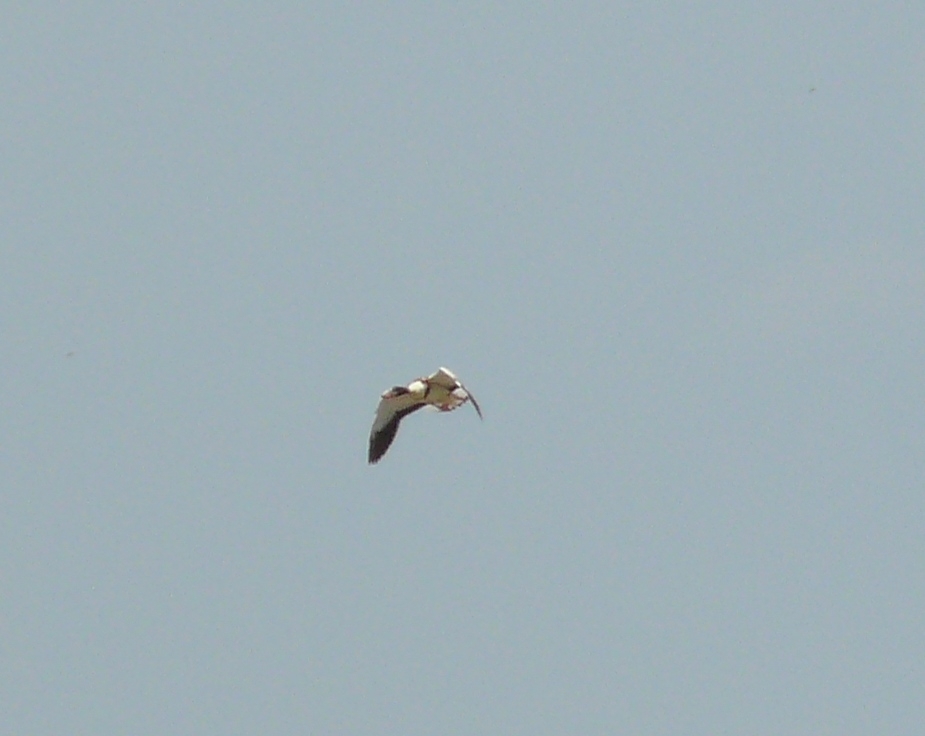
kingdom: Animalia
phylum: Chordata
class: Aves
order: Anseriformes
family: Anatidae
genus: Tadorna
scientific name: Tadorna tadorna
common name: Common shelduck
